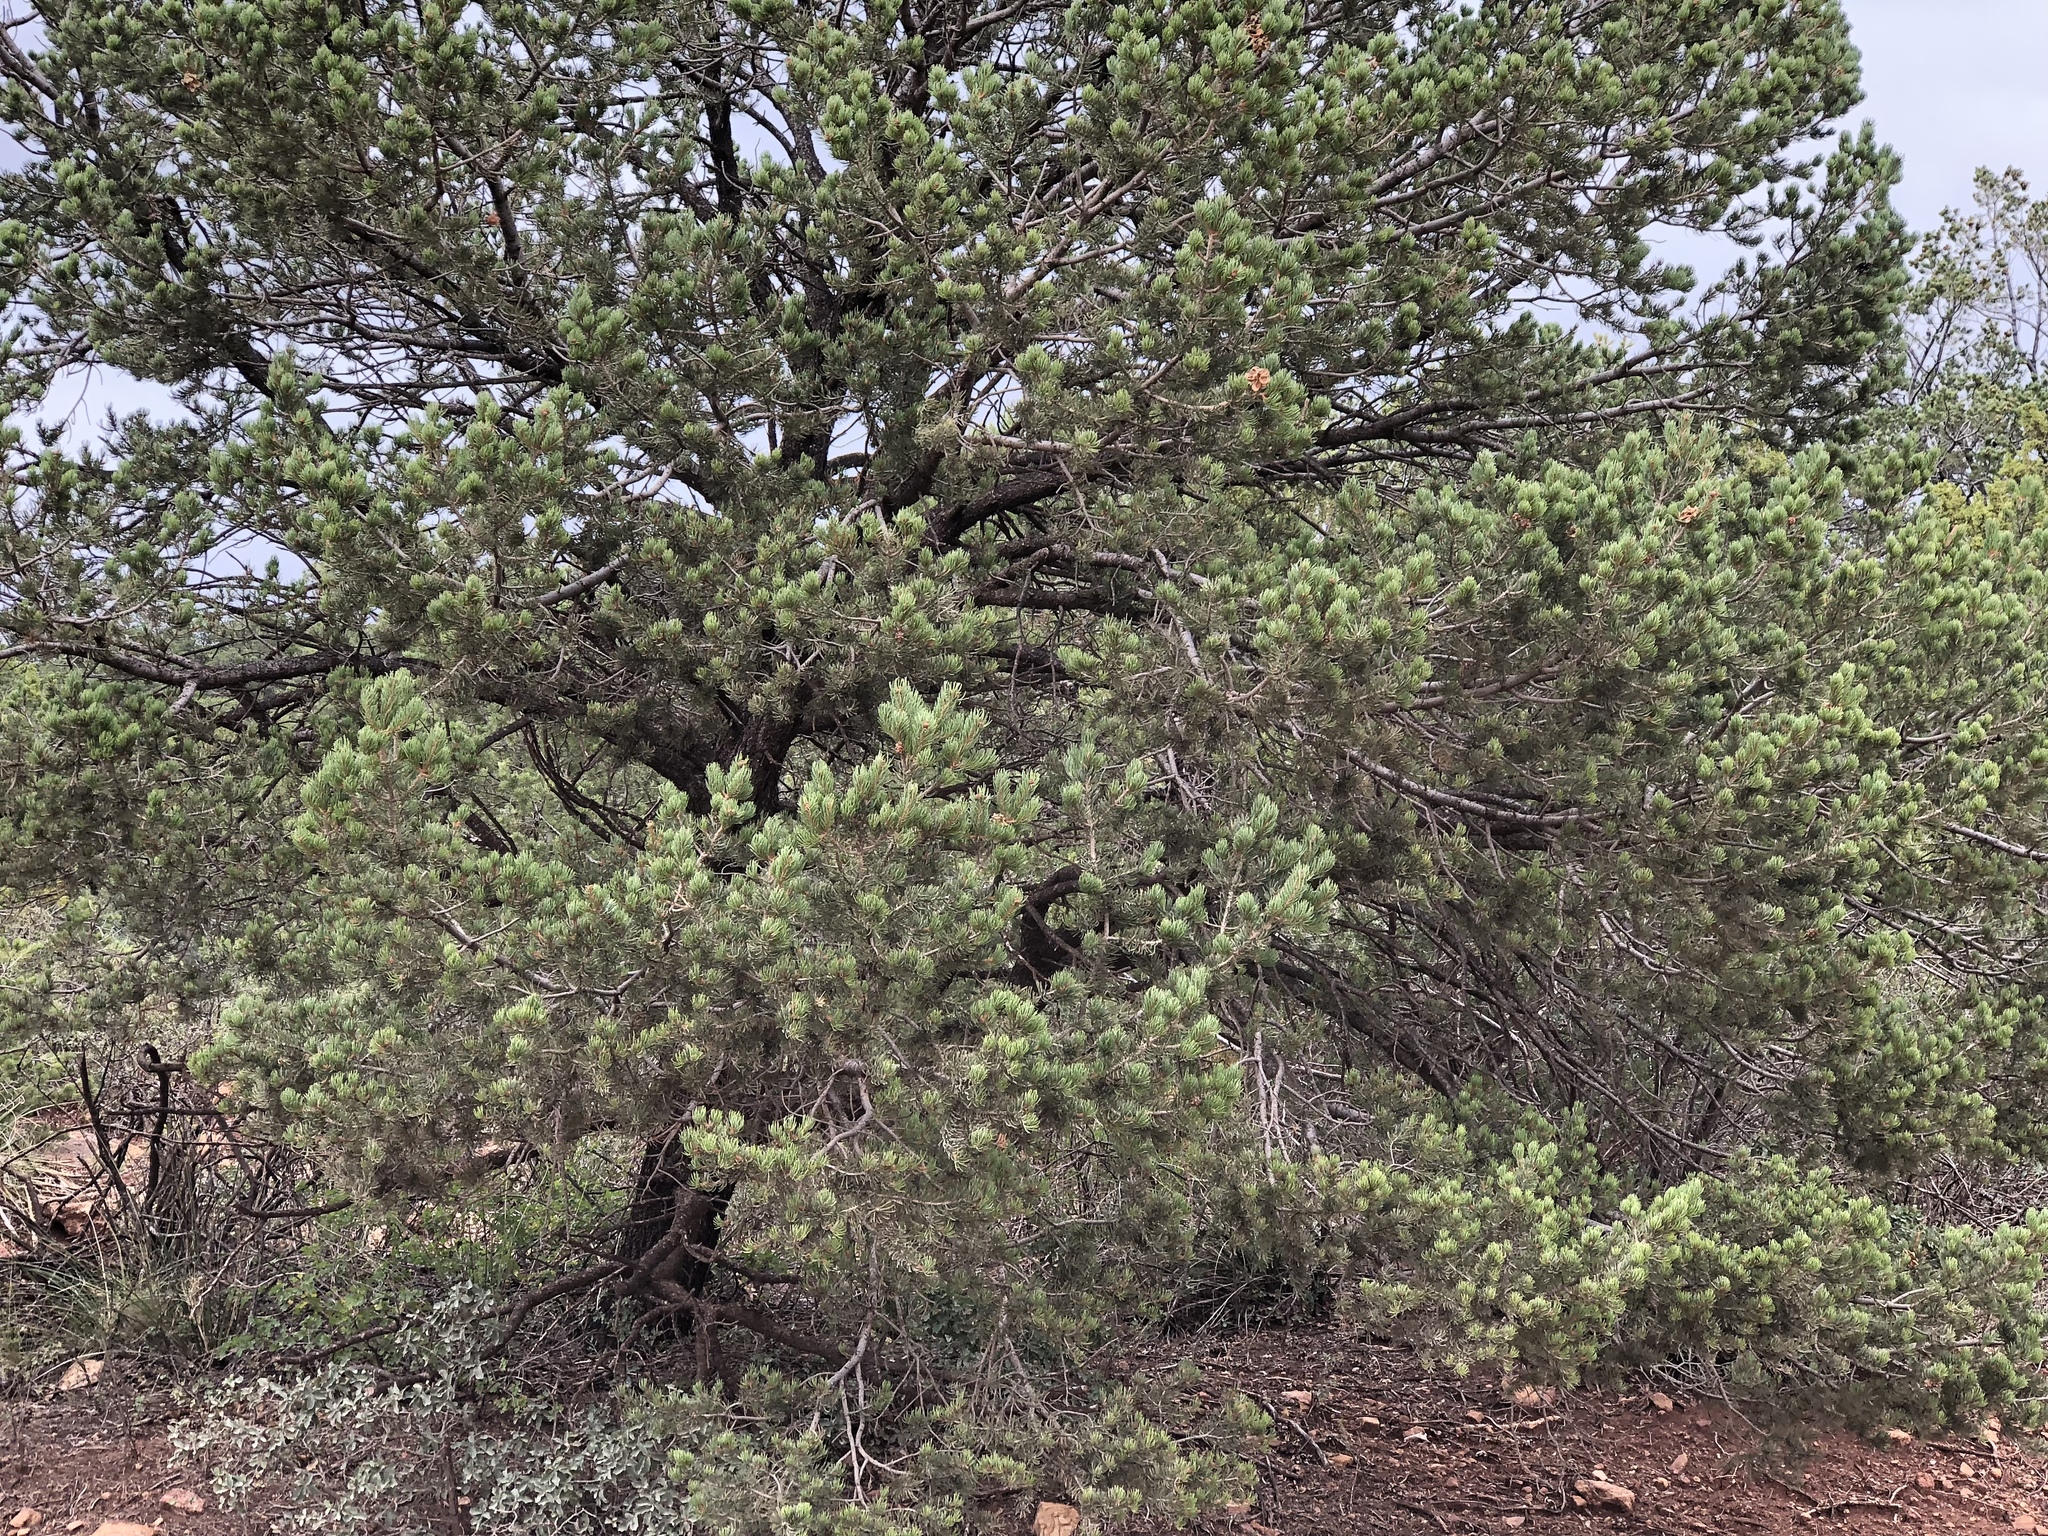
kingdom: Plantae
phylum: Tracheophyta
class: Pinopsida
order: Pinales
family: Pinaceae
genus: Pinus
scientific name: Pinus edulis
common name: Colorado pinyon
